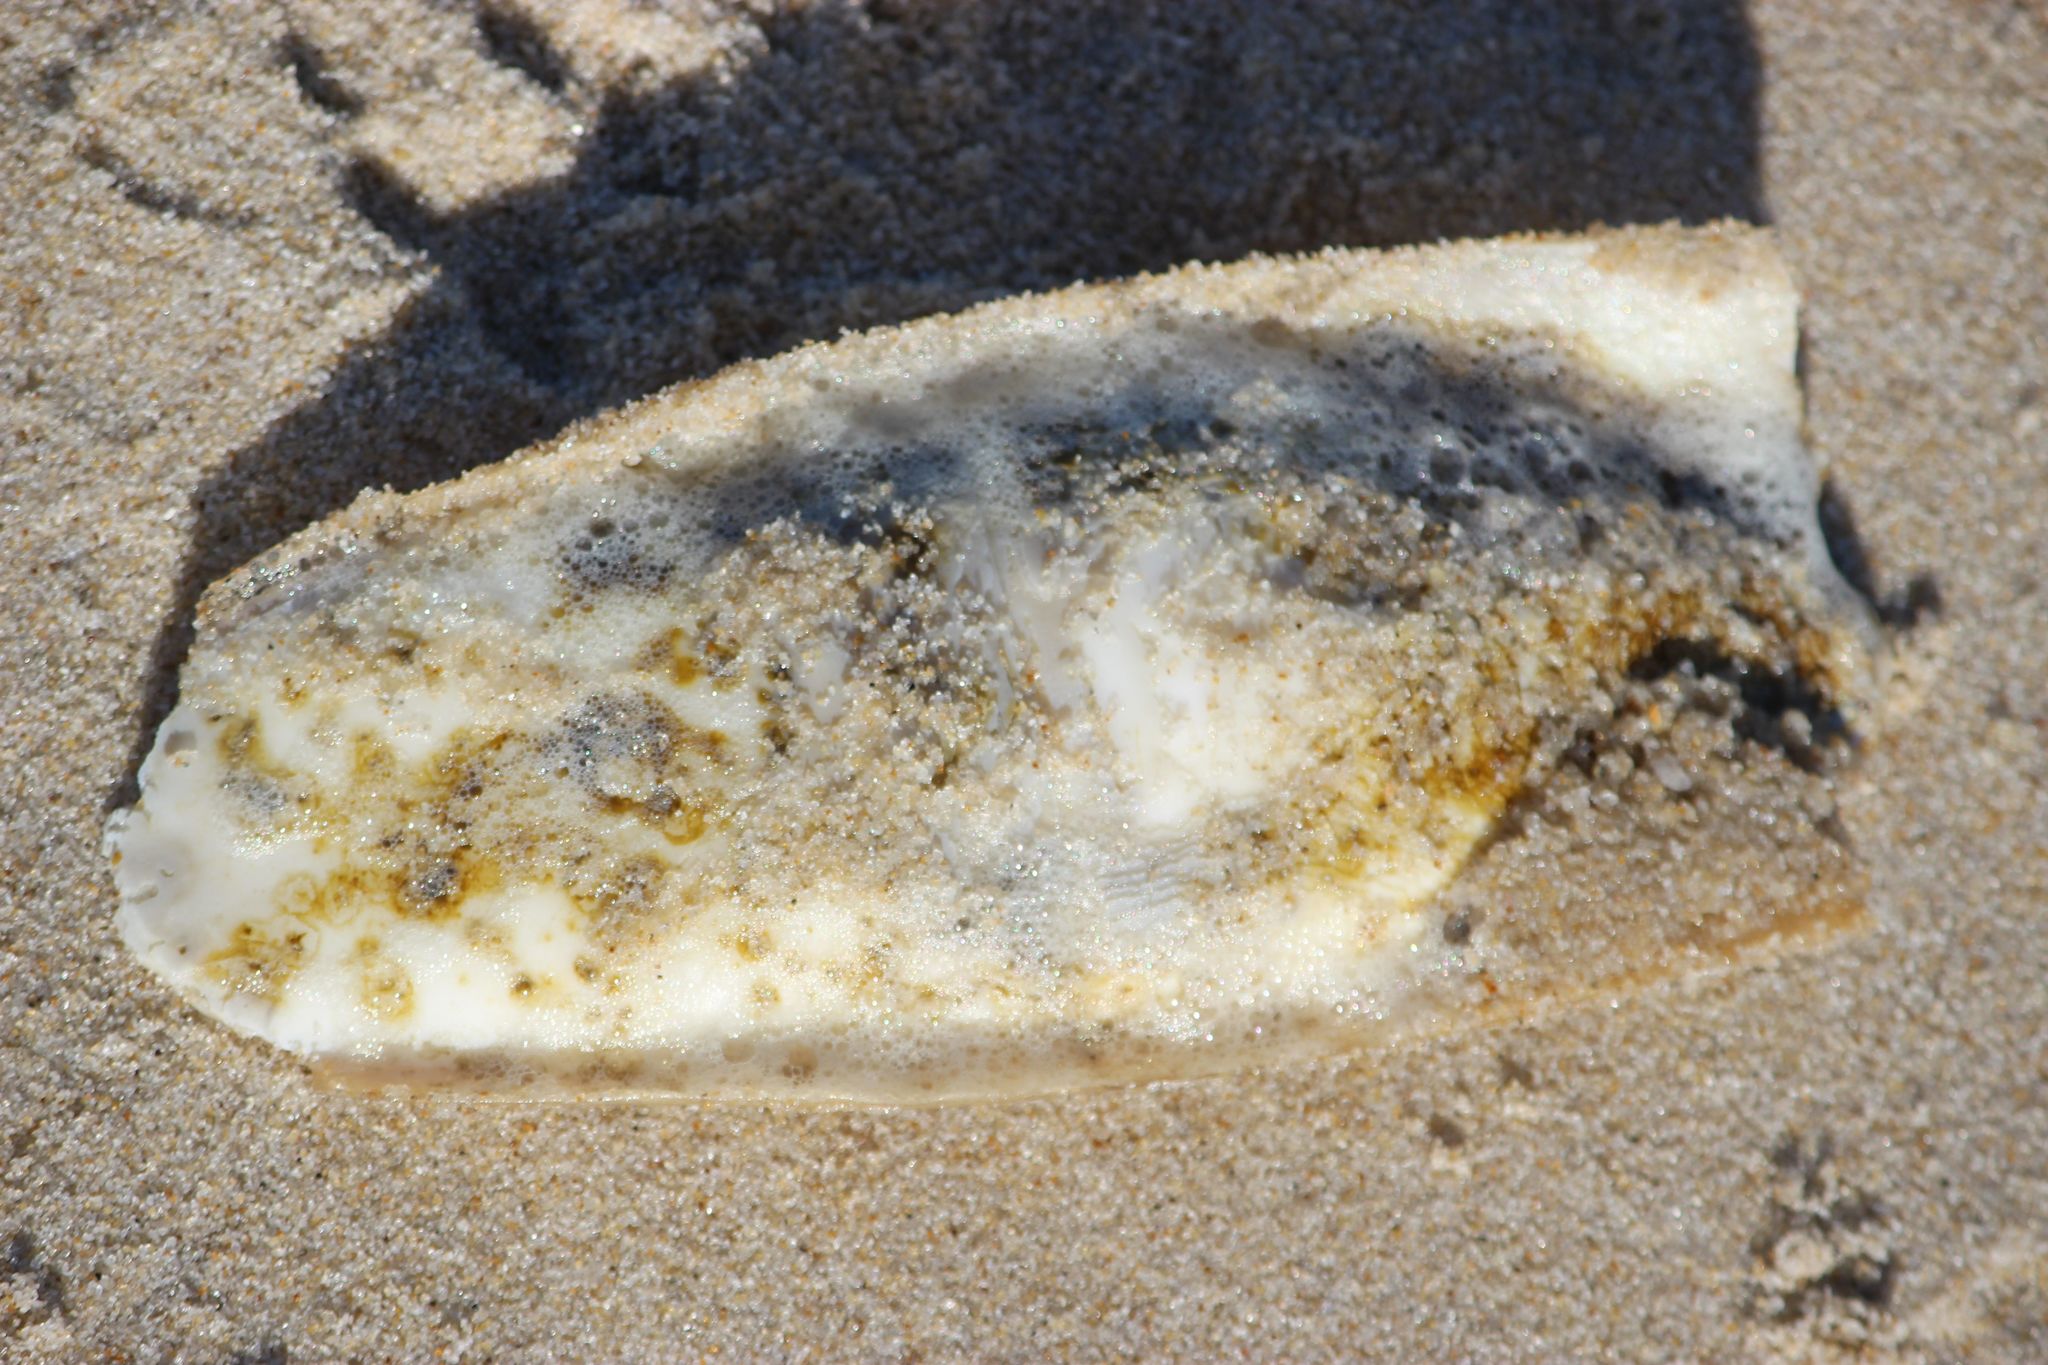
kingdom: Animalia
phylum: Mollusca
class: Cephalopoda
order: Sepiida
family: Sepiidae
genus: Sepia
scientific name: Sepia officinalis
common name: Common cuttlefish
